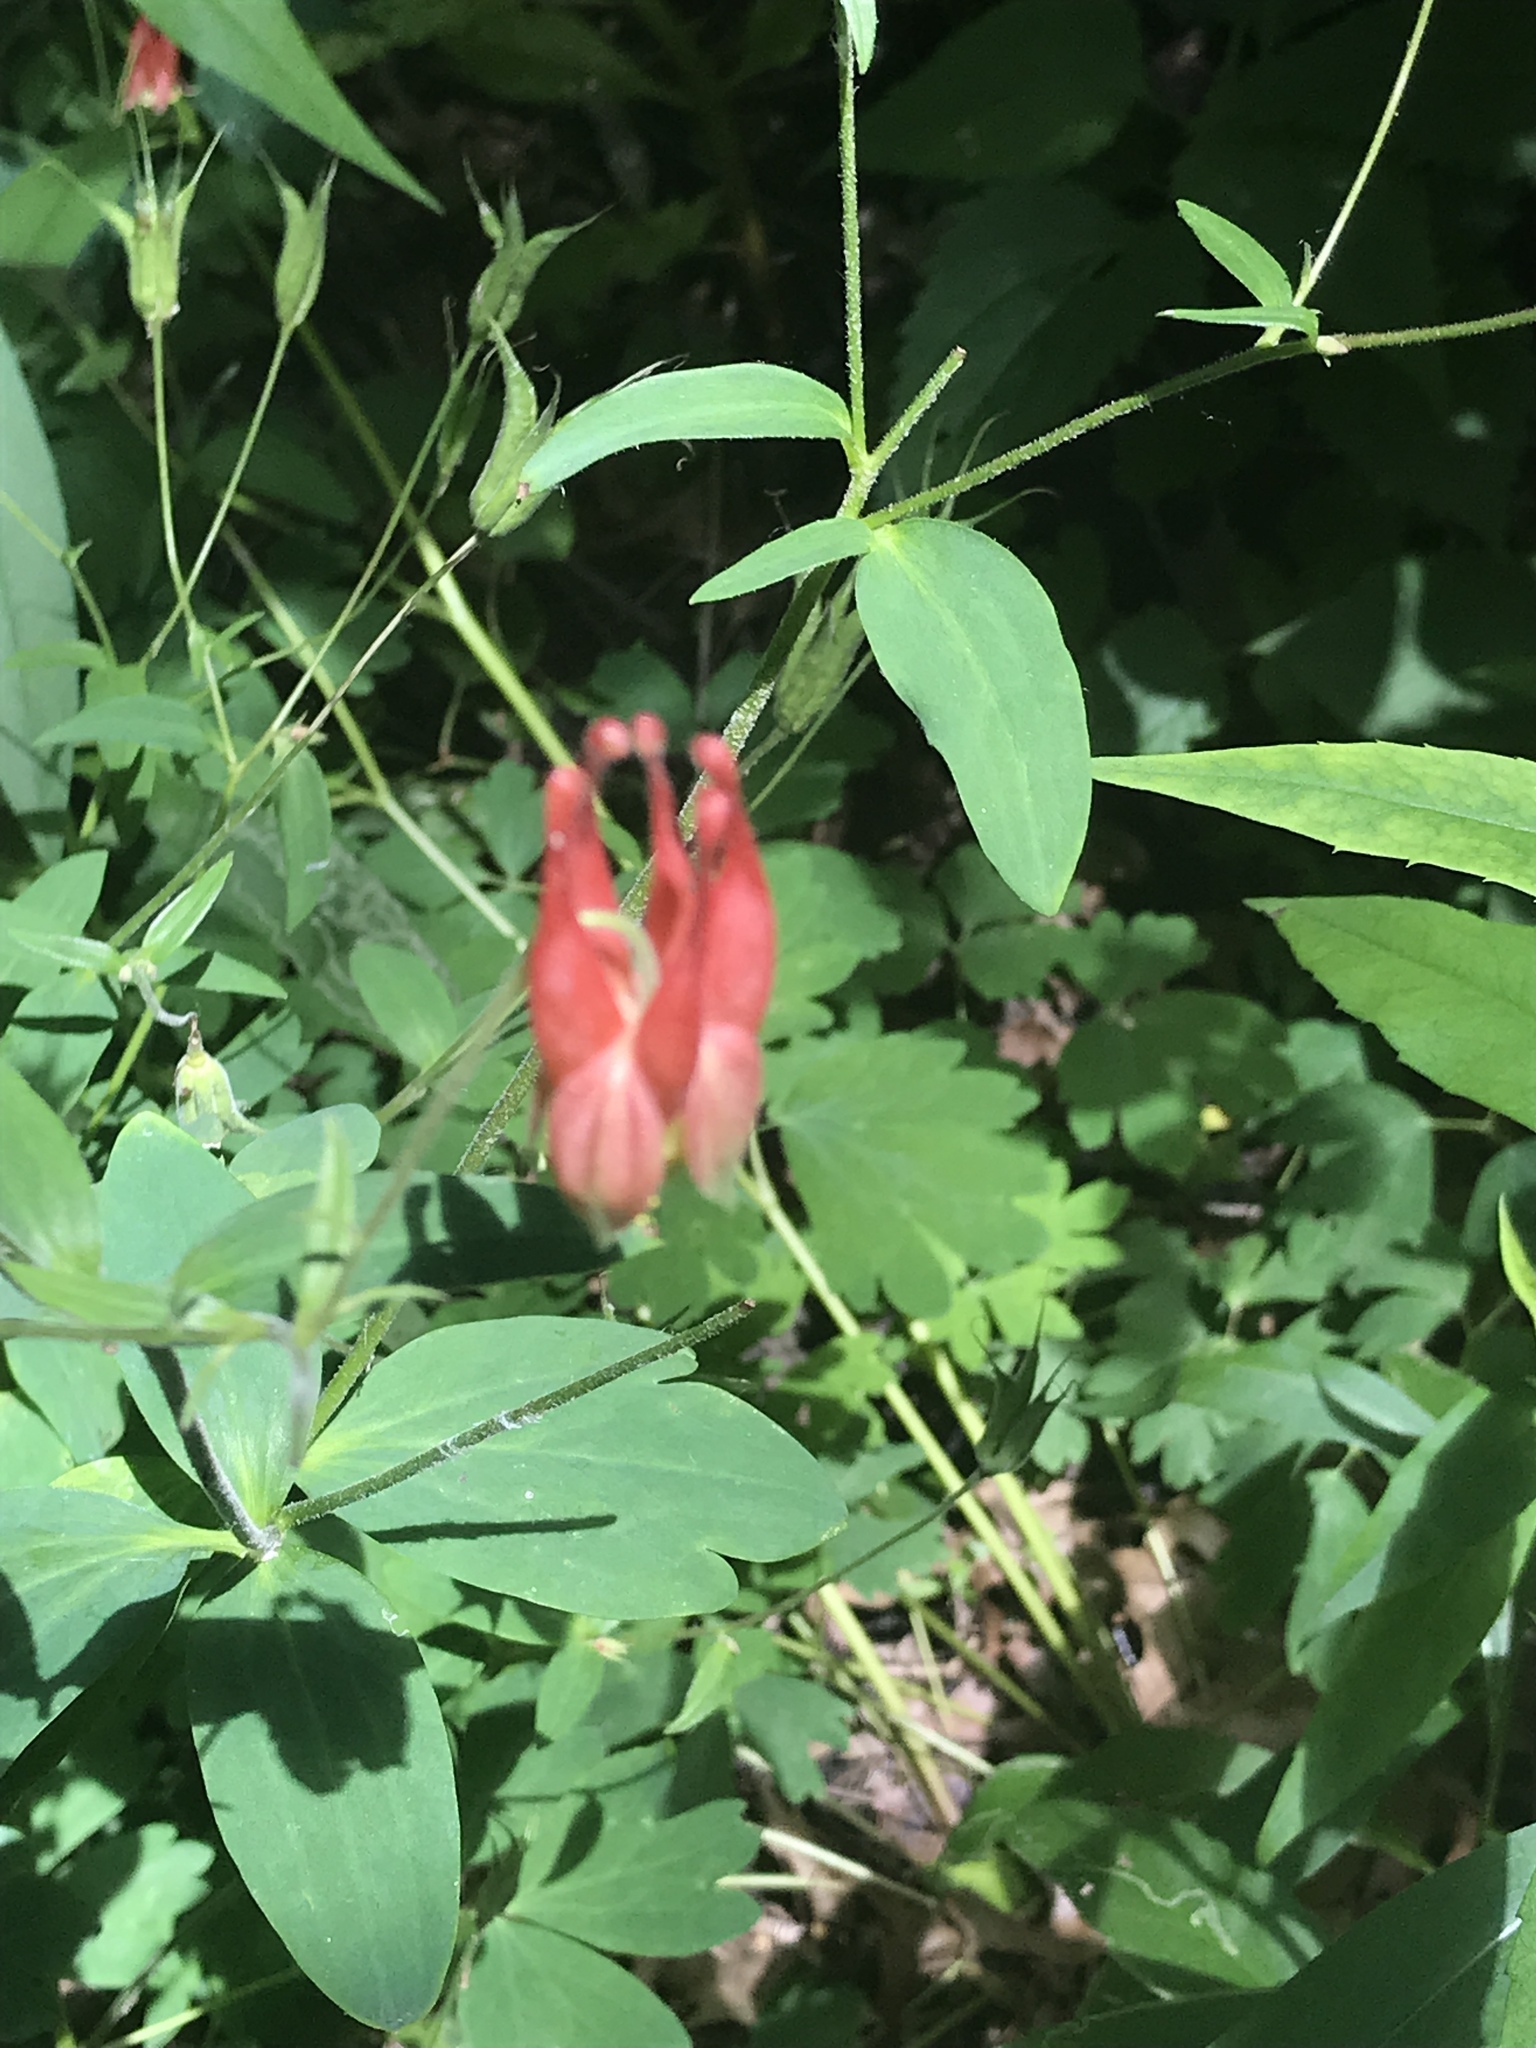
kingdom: Plantae
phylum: Tracheophyta
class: Magnoliopsida
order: Ranunculales
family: Ranunculaceae
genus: Aquilegia
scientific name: Aquilegia canadensis
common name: American columbine
